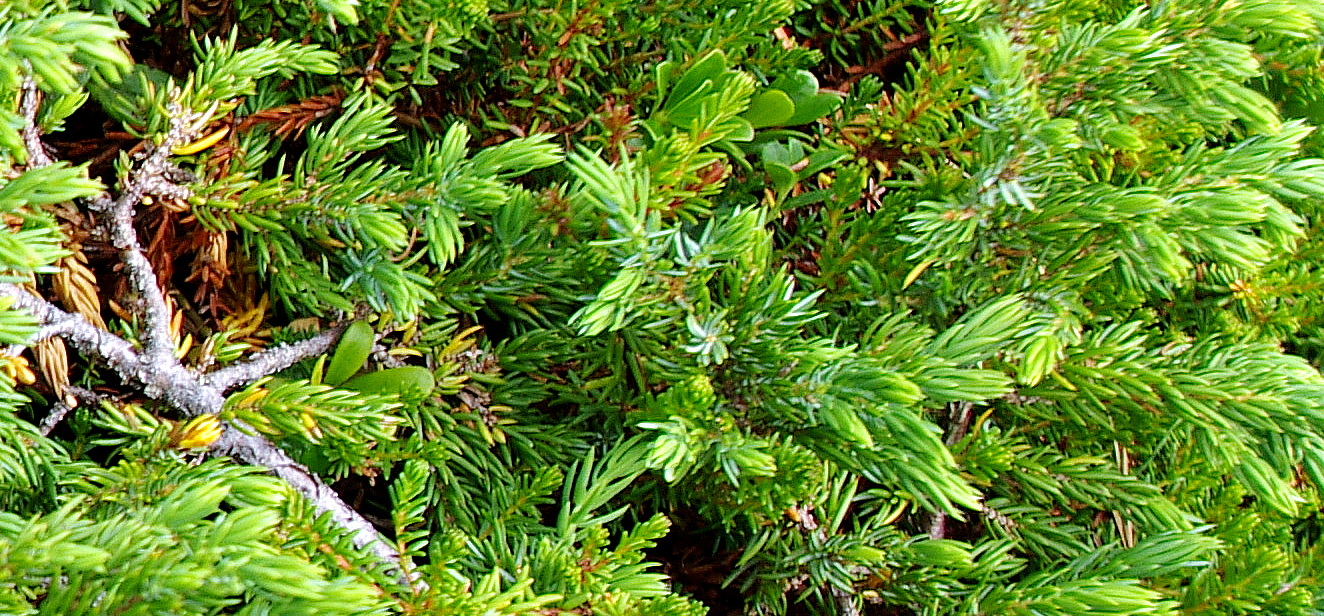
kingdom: Plantae
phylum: Tracheophyta
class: Pinopsida
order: Pinales
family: Cupressaceae
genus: Juniperus
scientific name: Juniperus communis
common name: Common juniper
